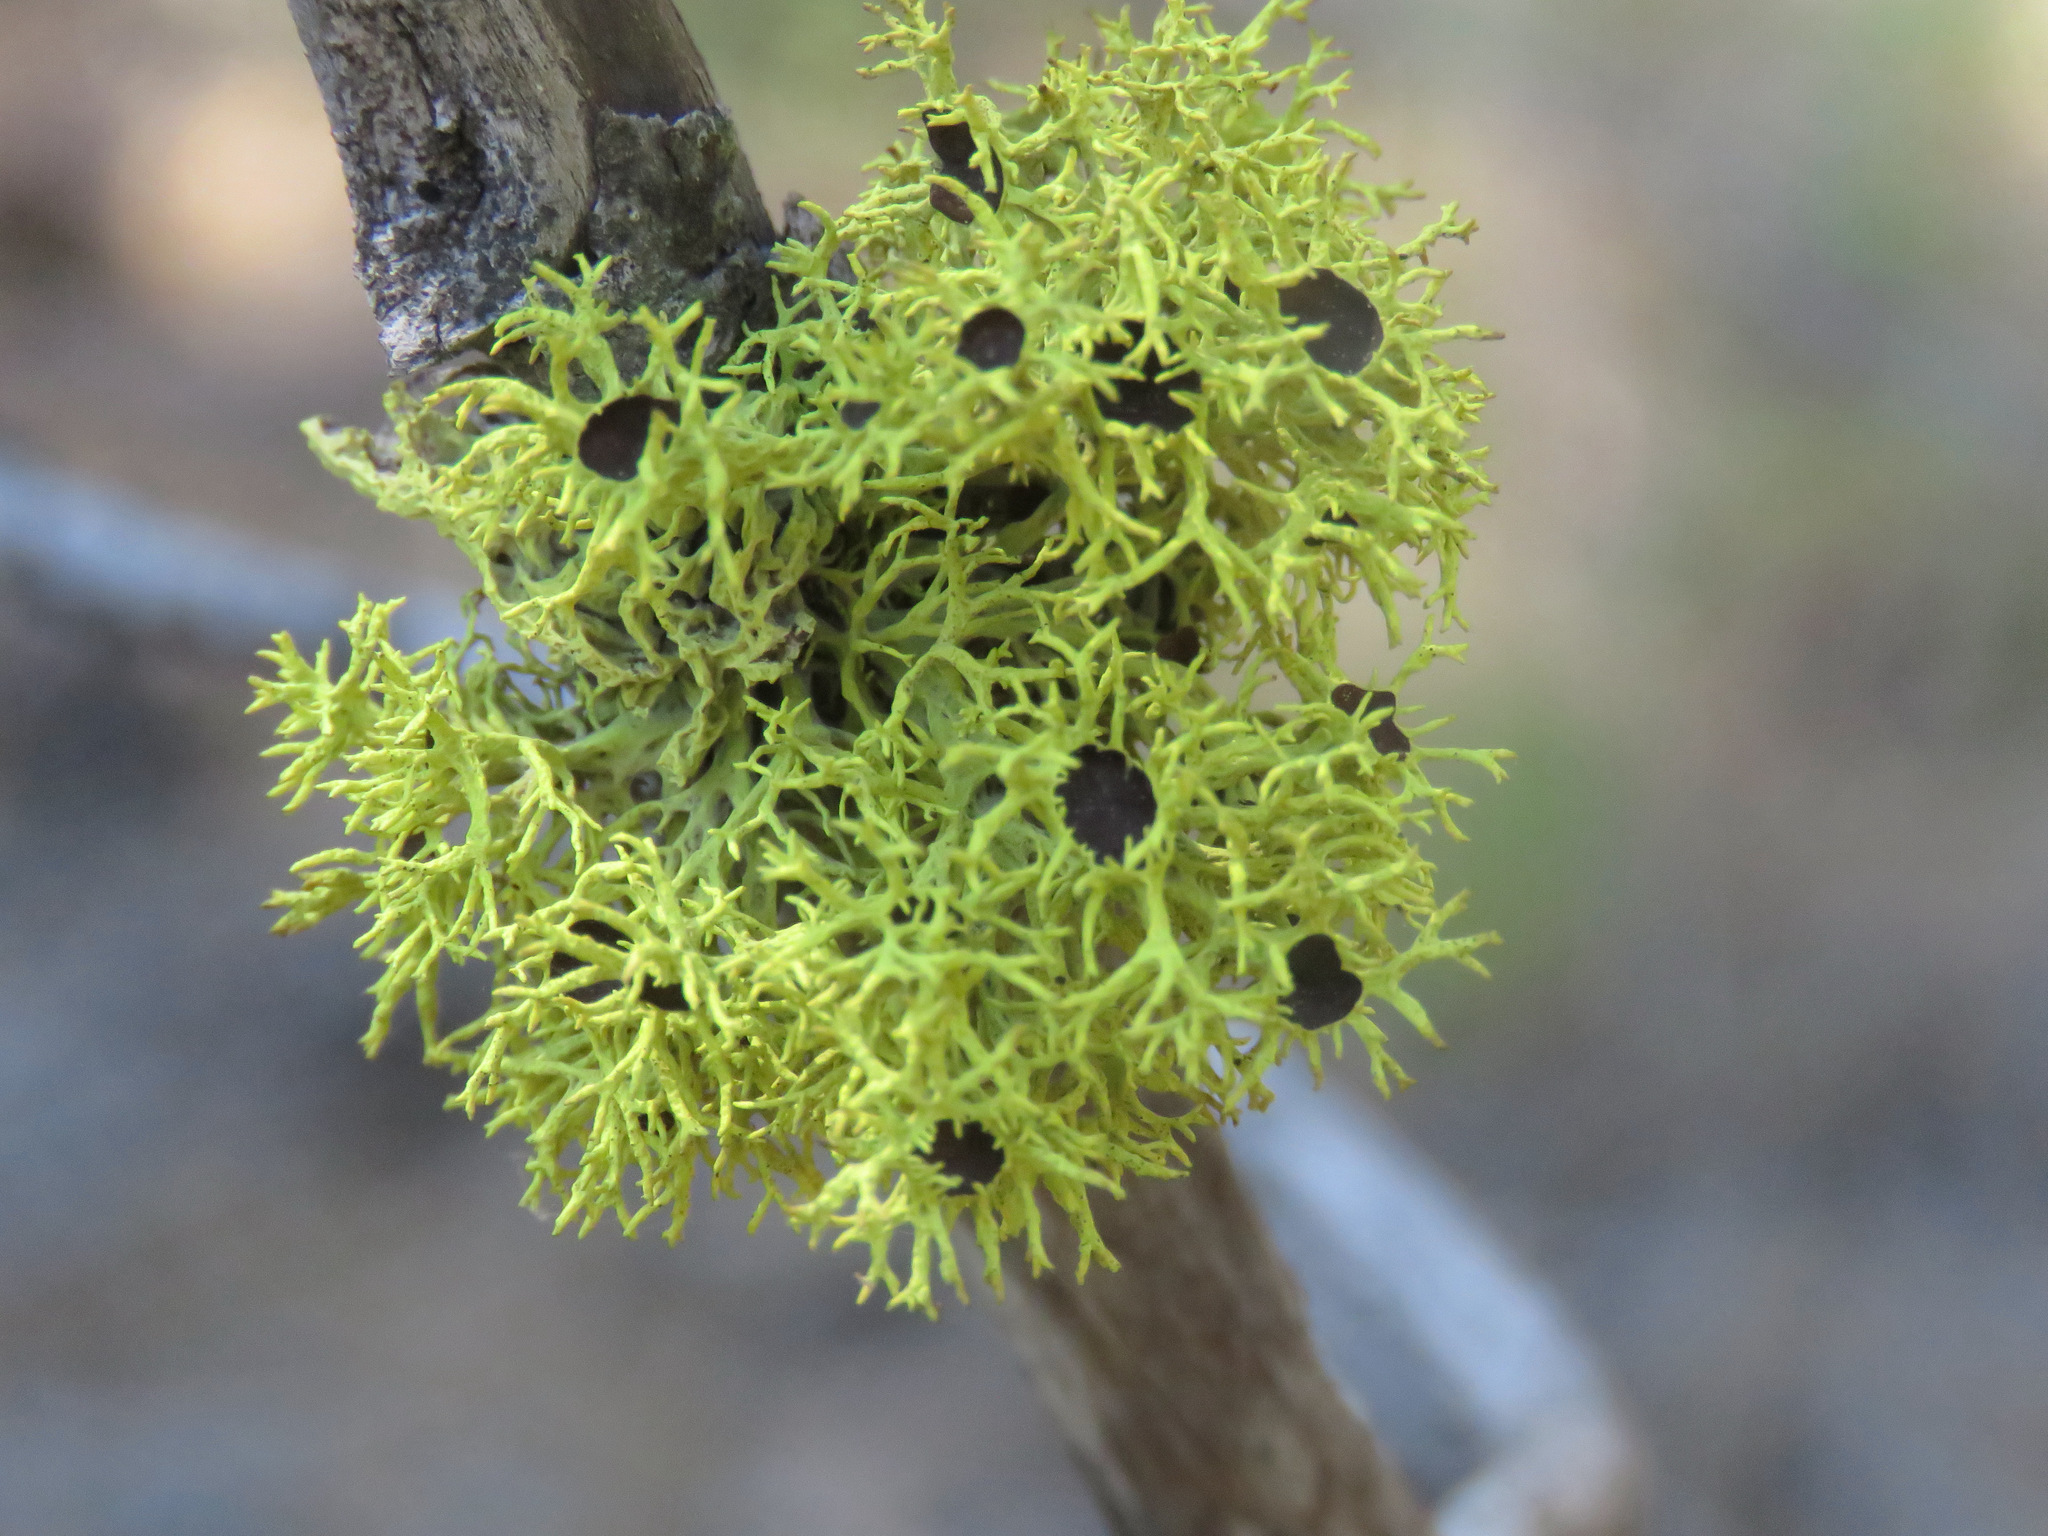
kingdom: Fungi
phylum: Ascomycota
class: Lecanoromycetes
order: Lecanorales
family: Parmeliaceae
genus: Letharia
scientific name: Letharia columbiana
